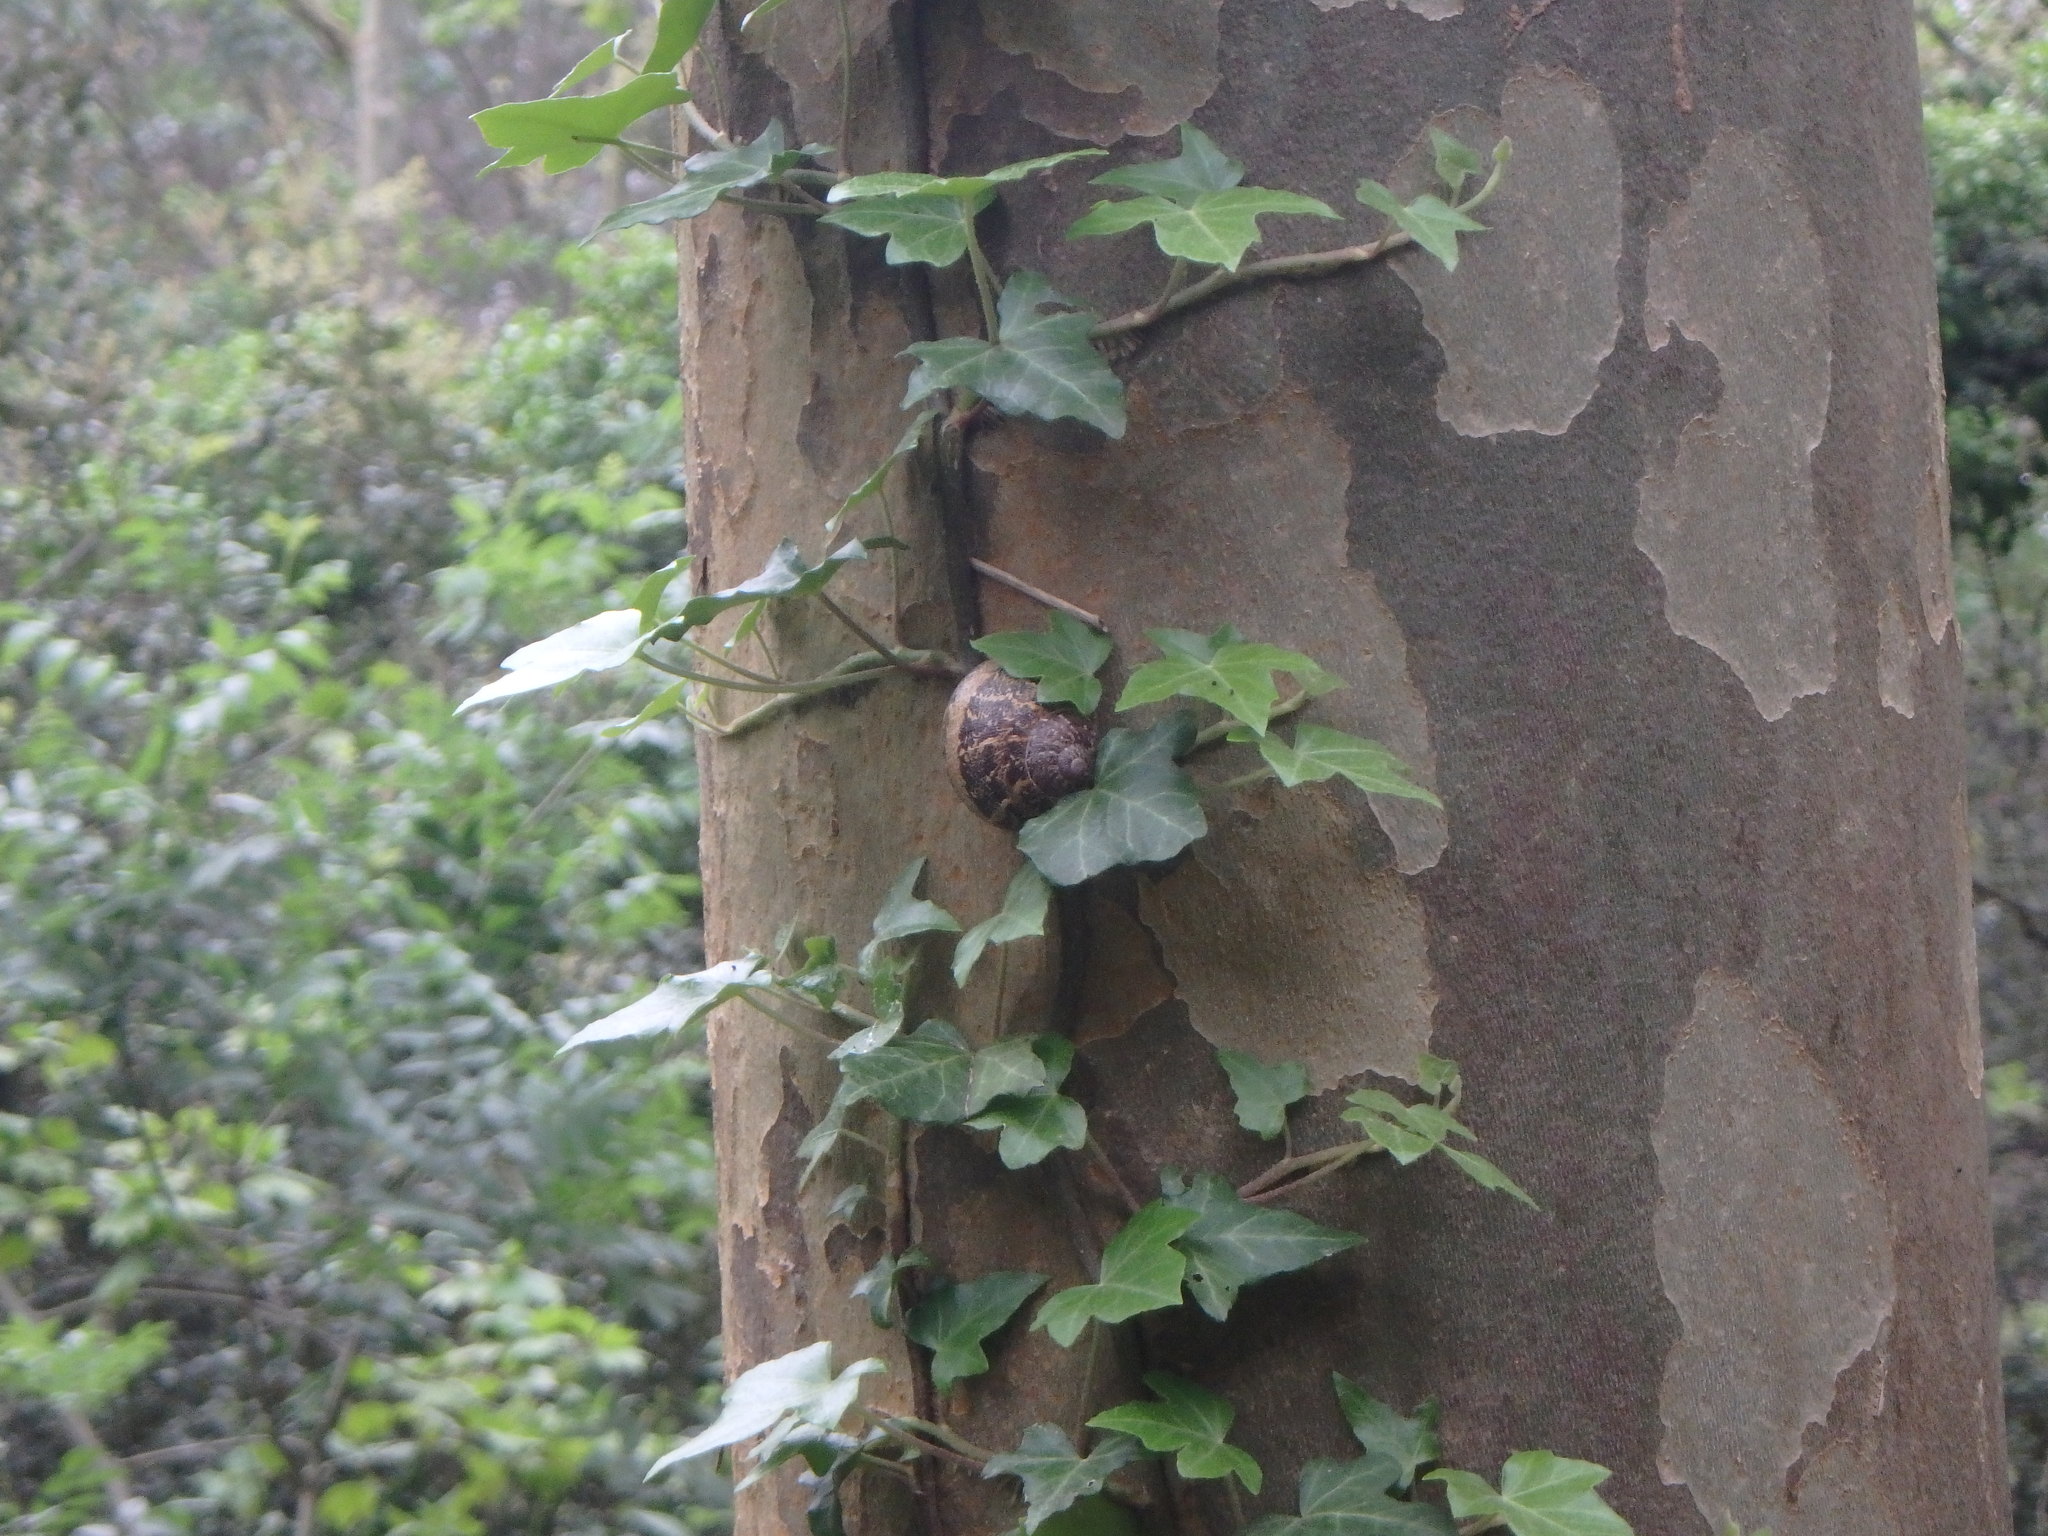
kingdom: Animalia
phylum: Mollusca
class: Gastropoda
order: Stylommatophora
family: Helicidae
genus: Cornu
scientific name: Cornu aspersum
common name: Brown garden snail
